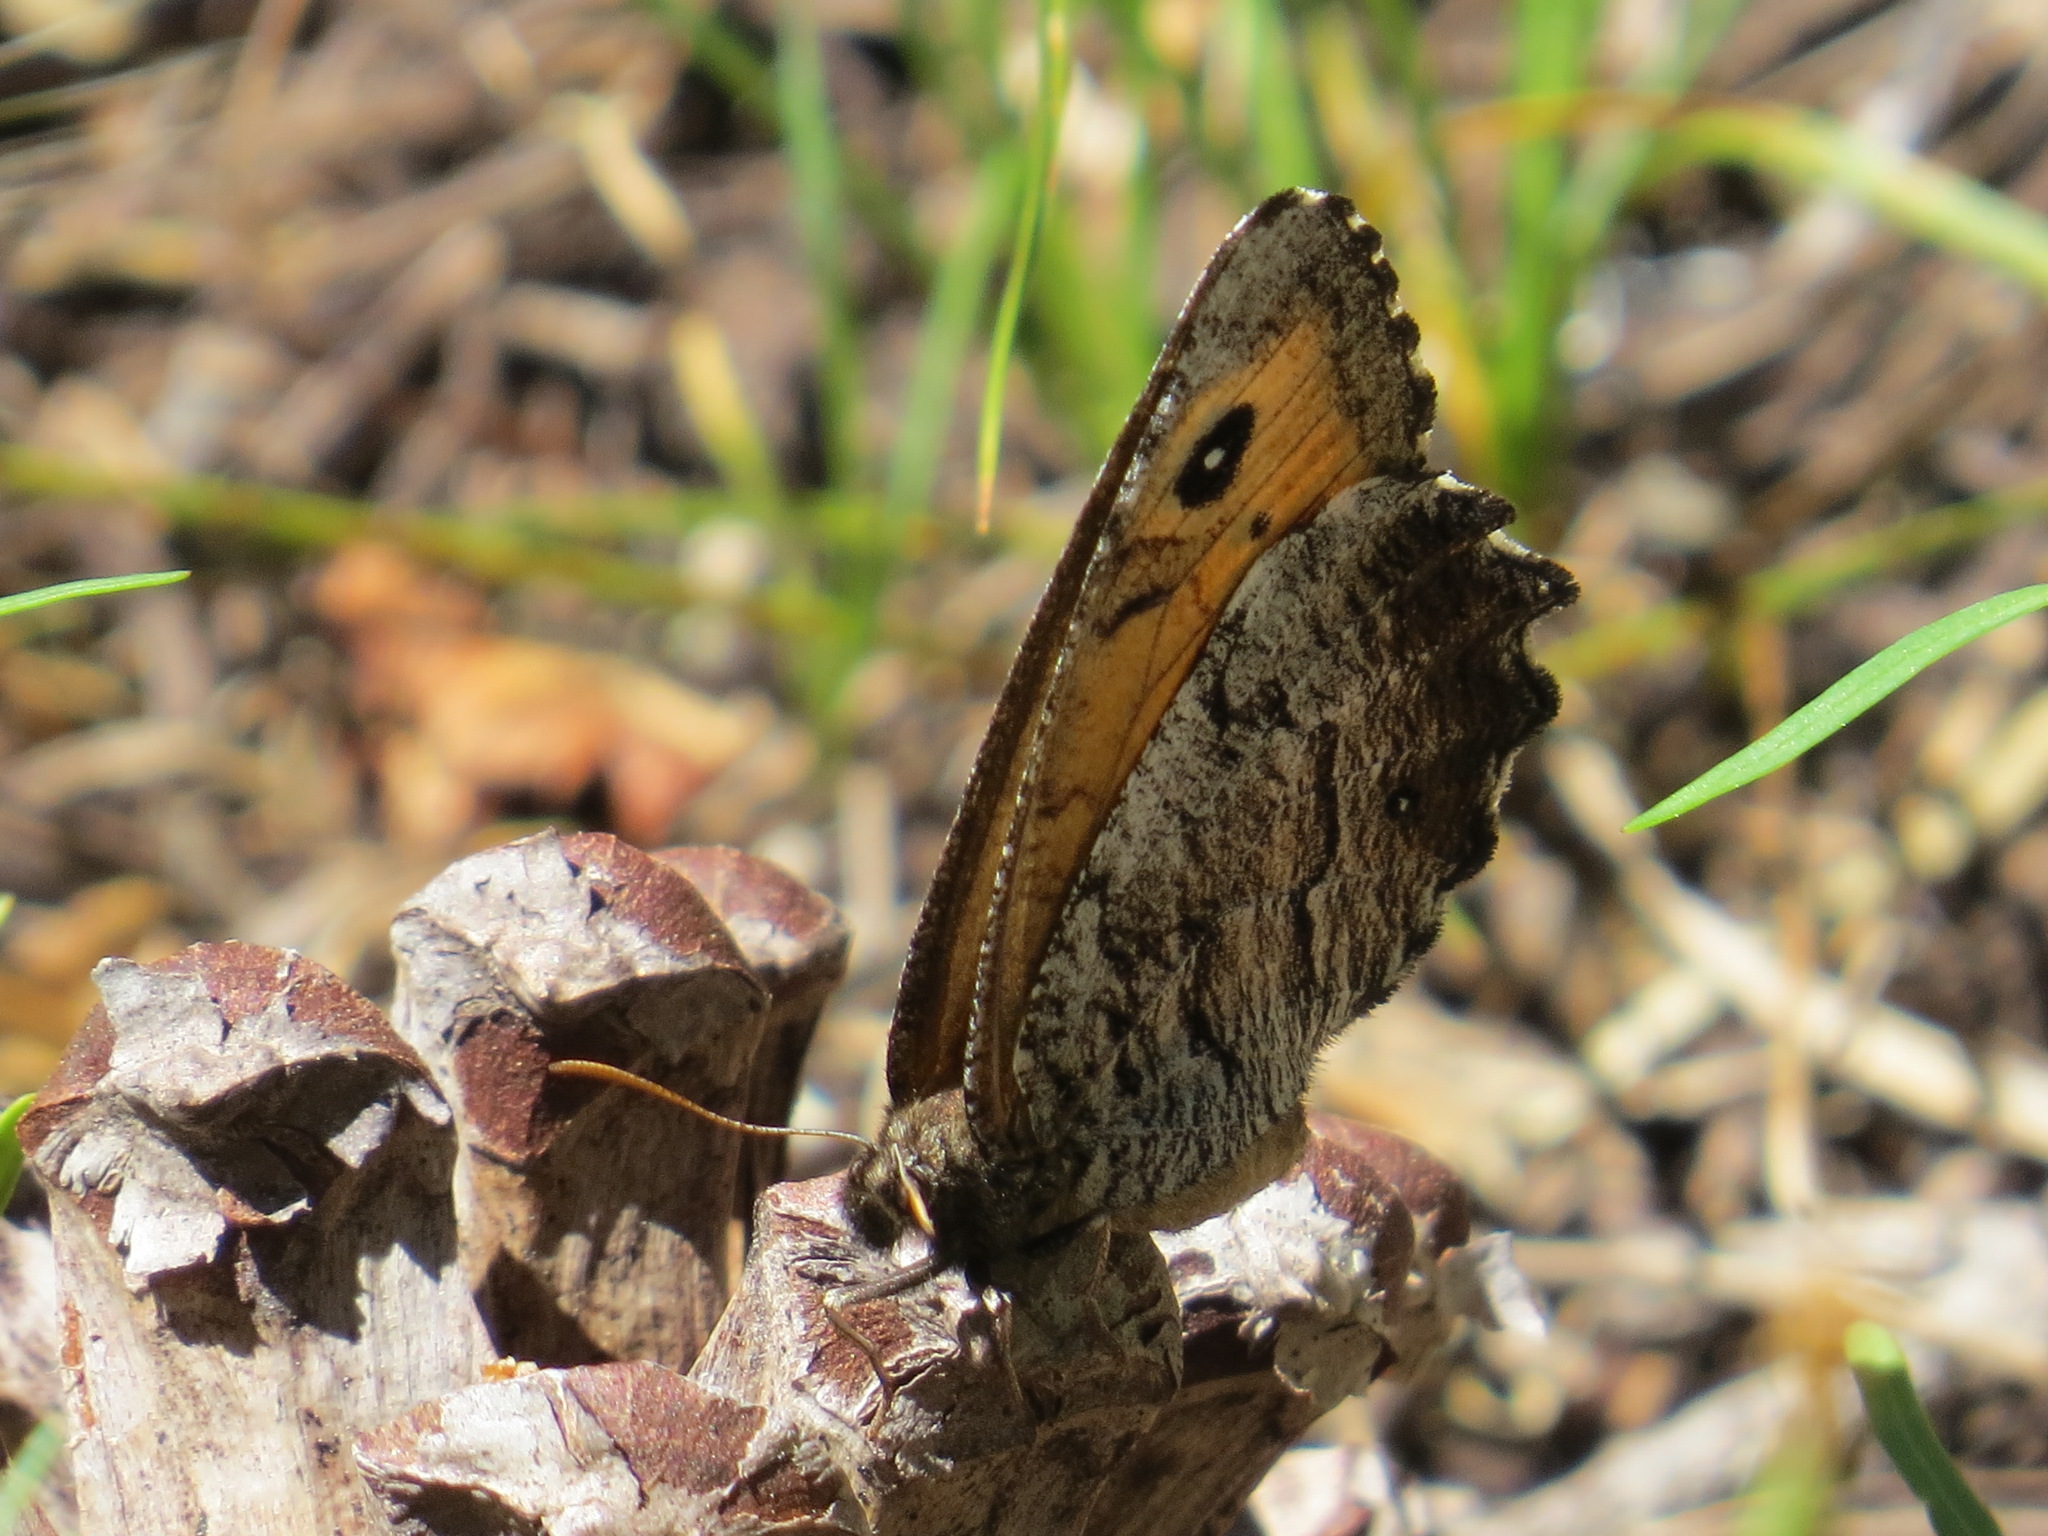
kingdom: Animalia
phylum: Arthropoda
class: Insecta
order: Lepidoptera
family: Nymphalidae
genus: Oeneis
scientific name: Oeneis nevadensis
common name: Great arctic
